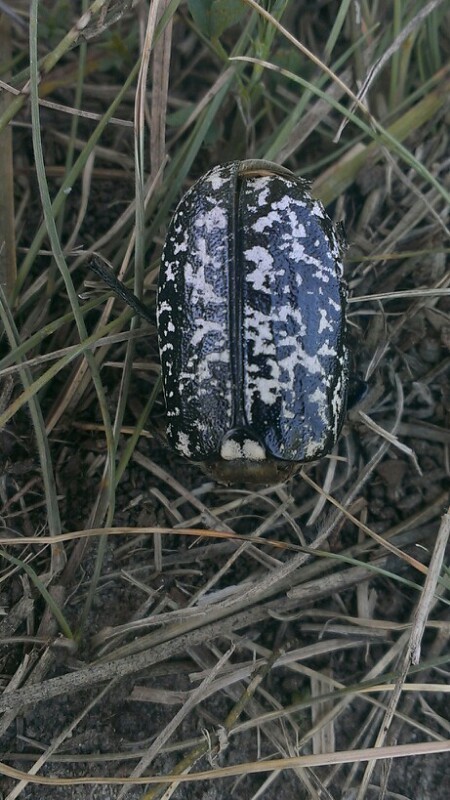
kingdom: Animalia
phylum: Arthropoda
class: Insecta
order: Coleoptera
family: Scarabaeidae
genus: Polyphylla
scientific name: Polyphylla fullo
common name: Pine chafer
